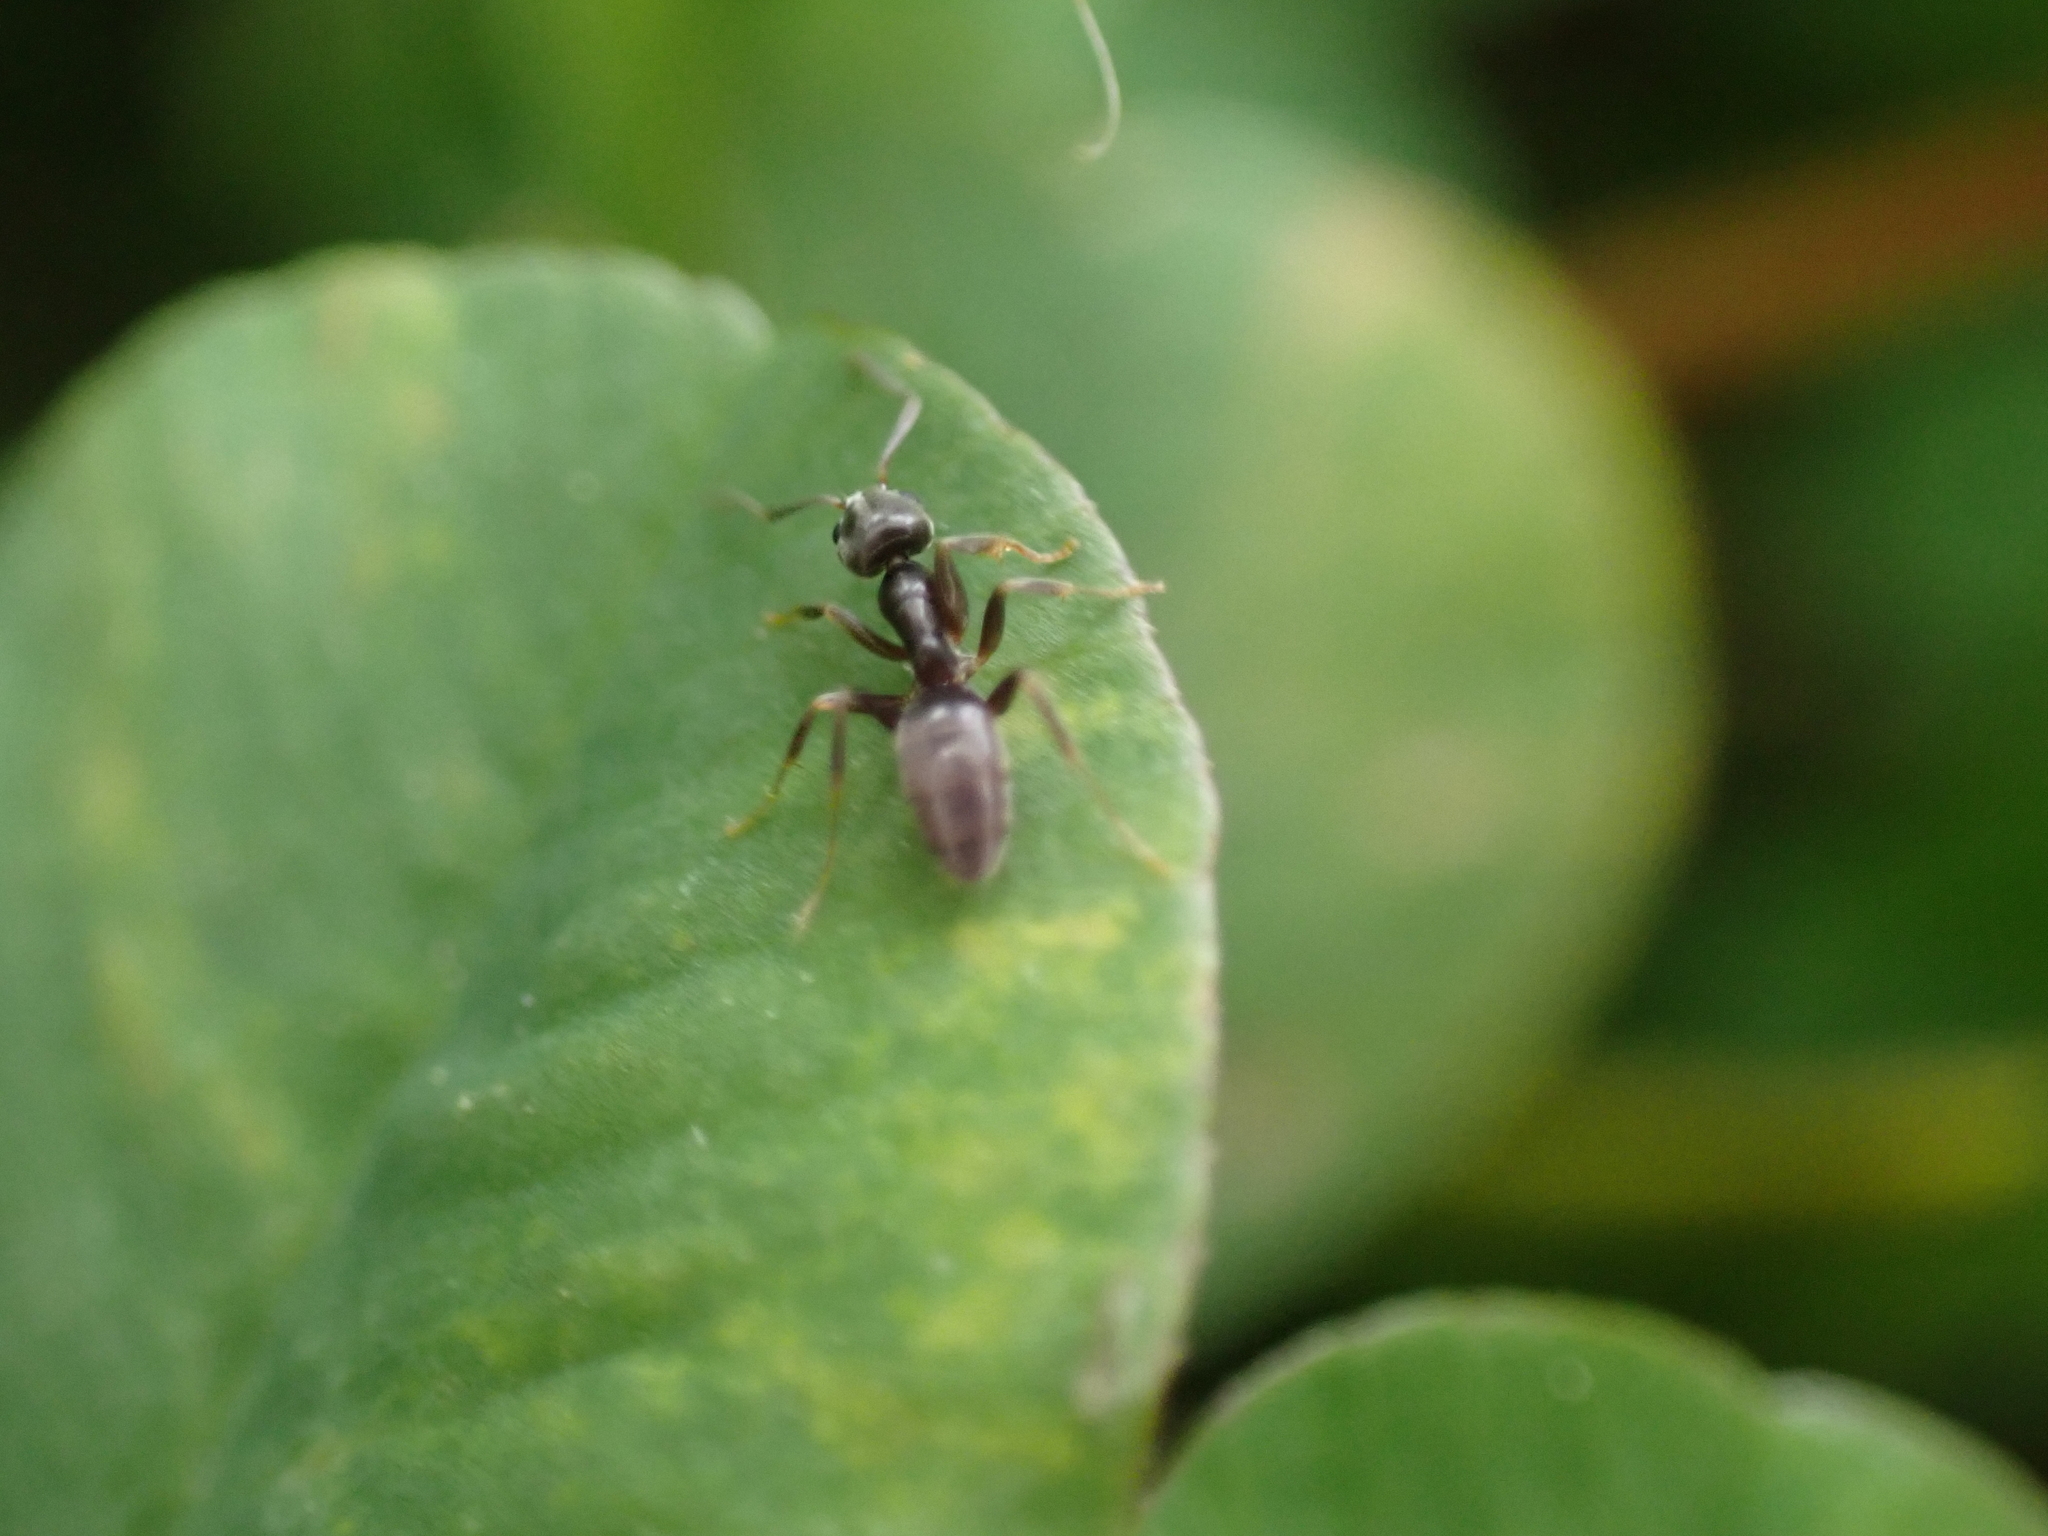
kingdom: Animalia
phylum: Arthropoda
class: Insecta
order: Hymenoptera
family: Formicidae
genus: Tapinoma
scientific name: Tapinoma sessile
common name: Odorous house ant
